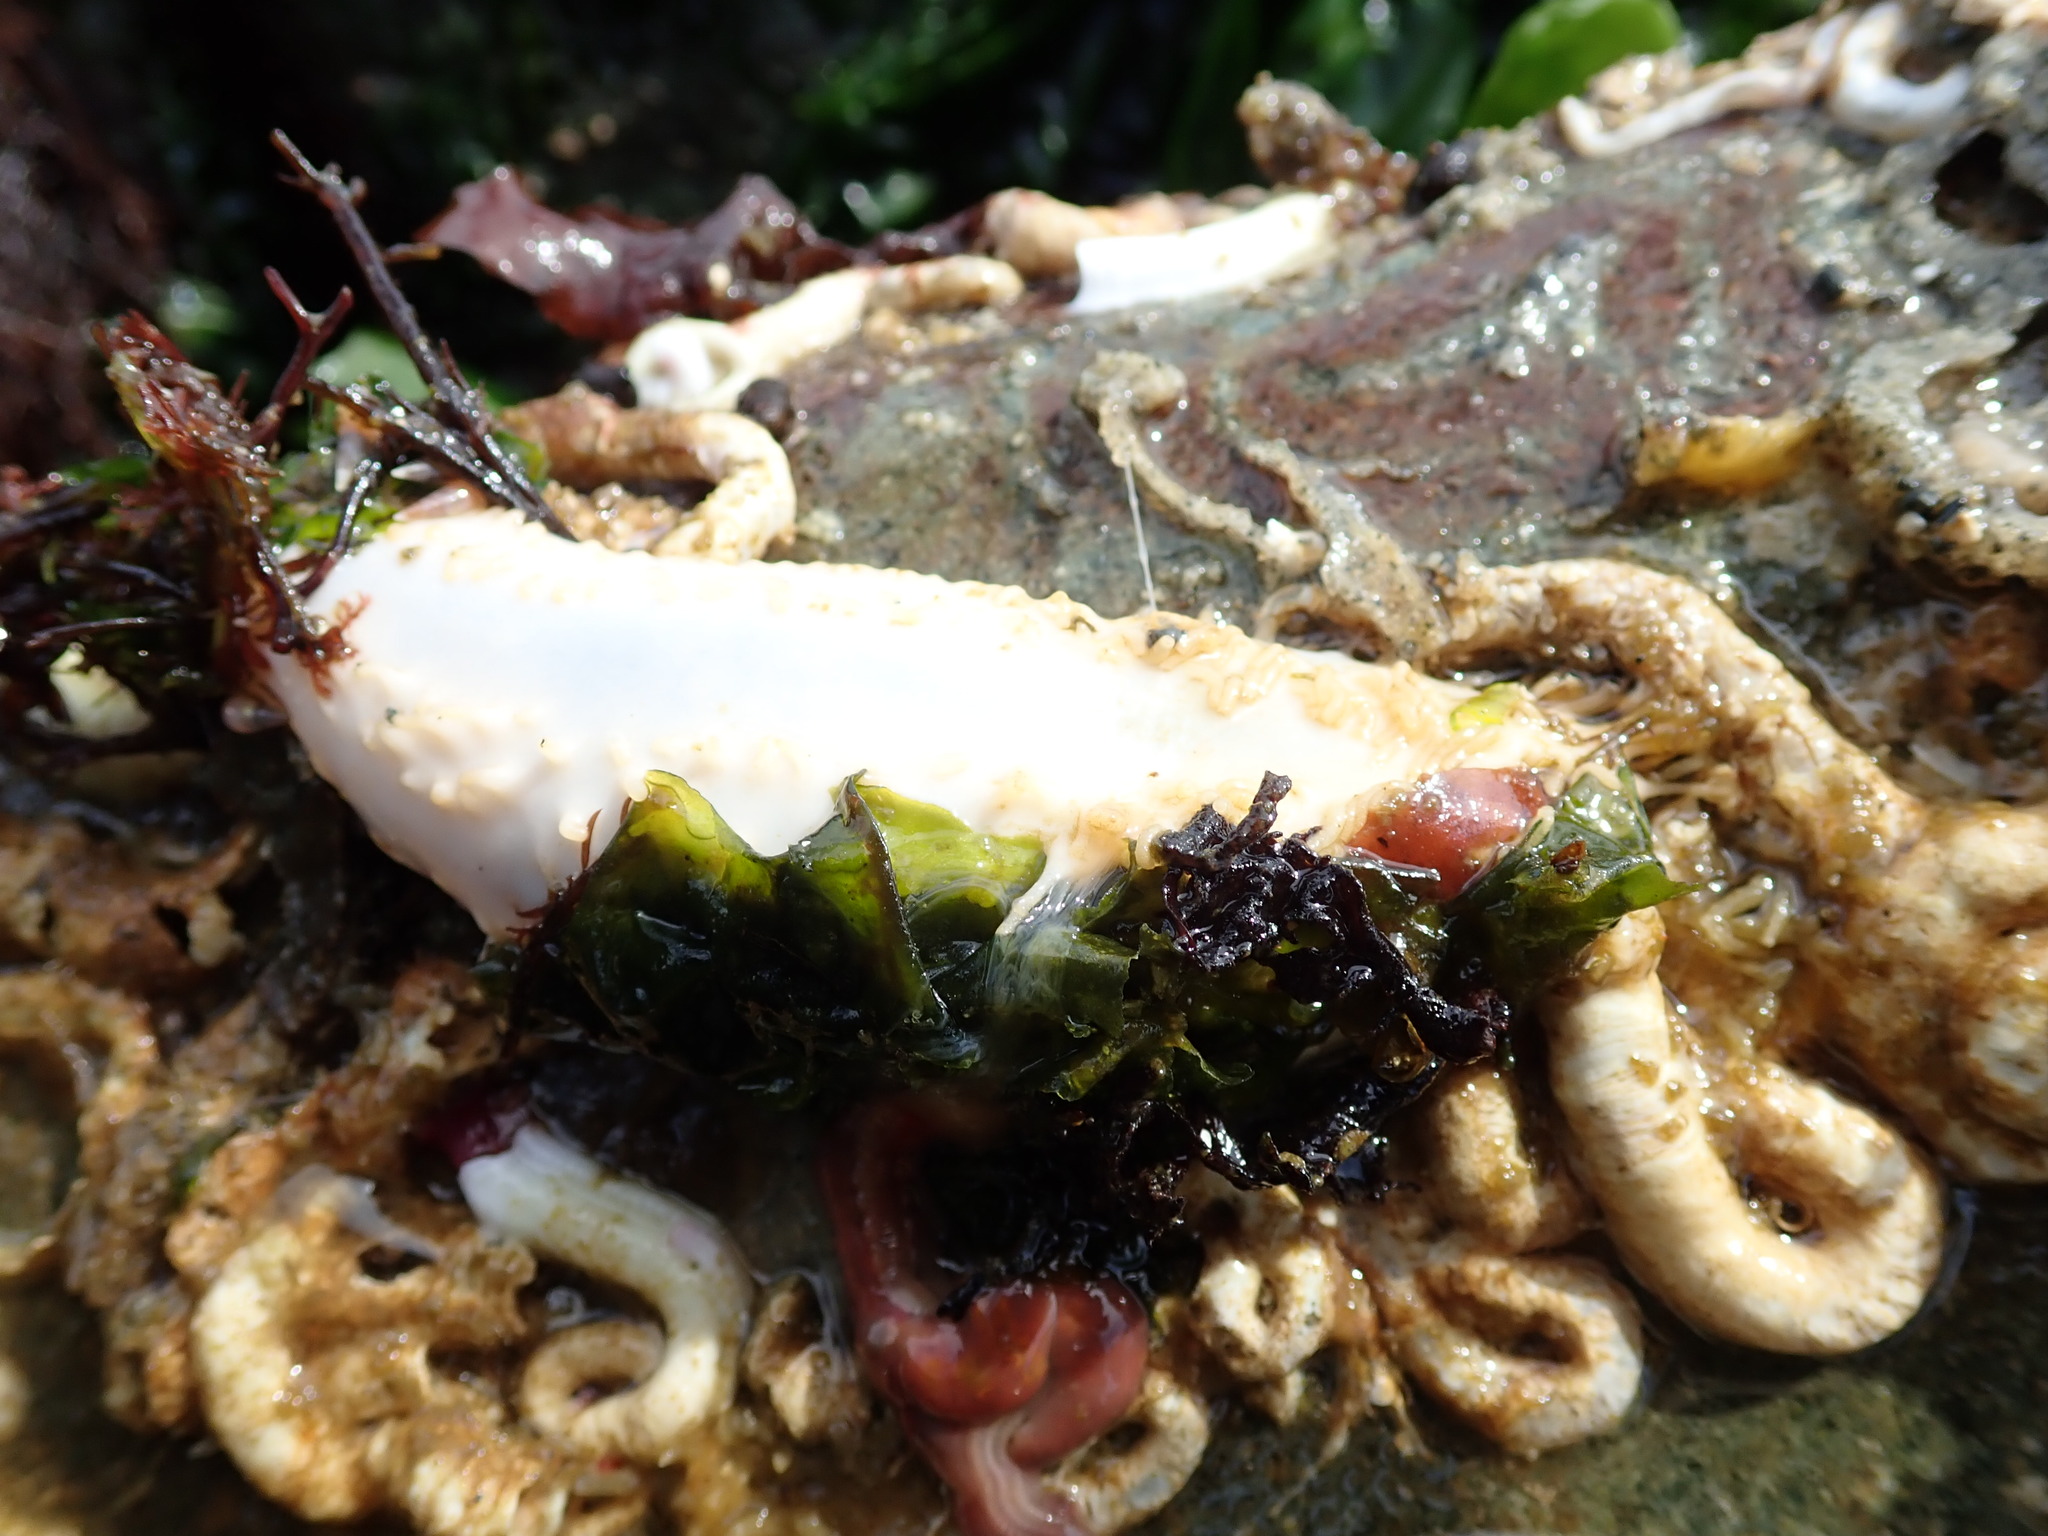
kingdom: Animalia
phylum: Echinodermata
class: Holothuroidea
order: Dendrochirotida
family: Sclerodactylidae
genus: Eupentacta
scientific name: Eupentacta quinquesemita
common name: Pentamerous sea cucumber
